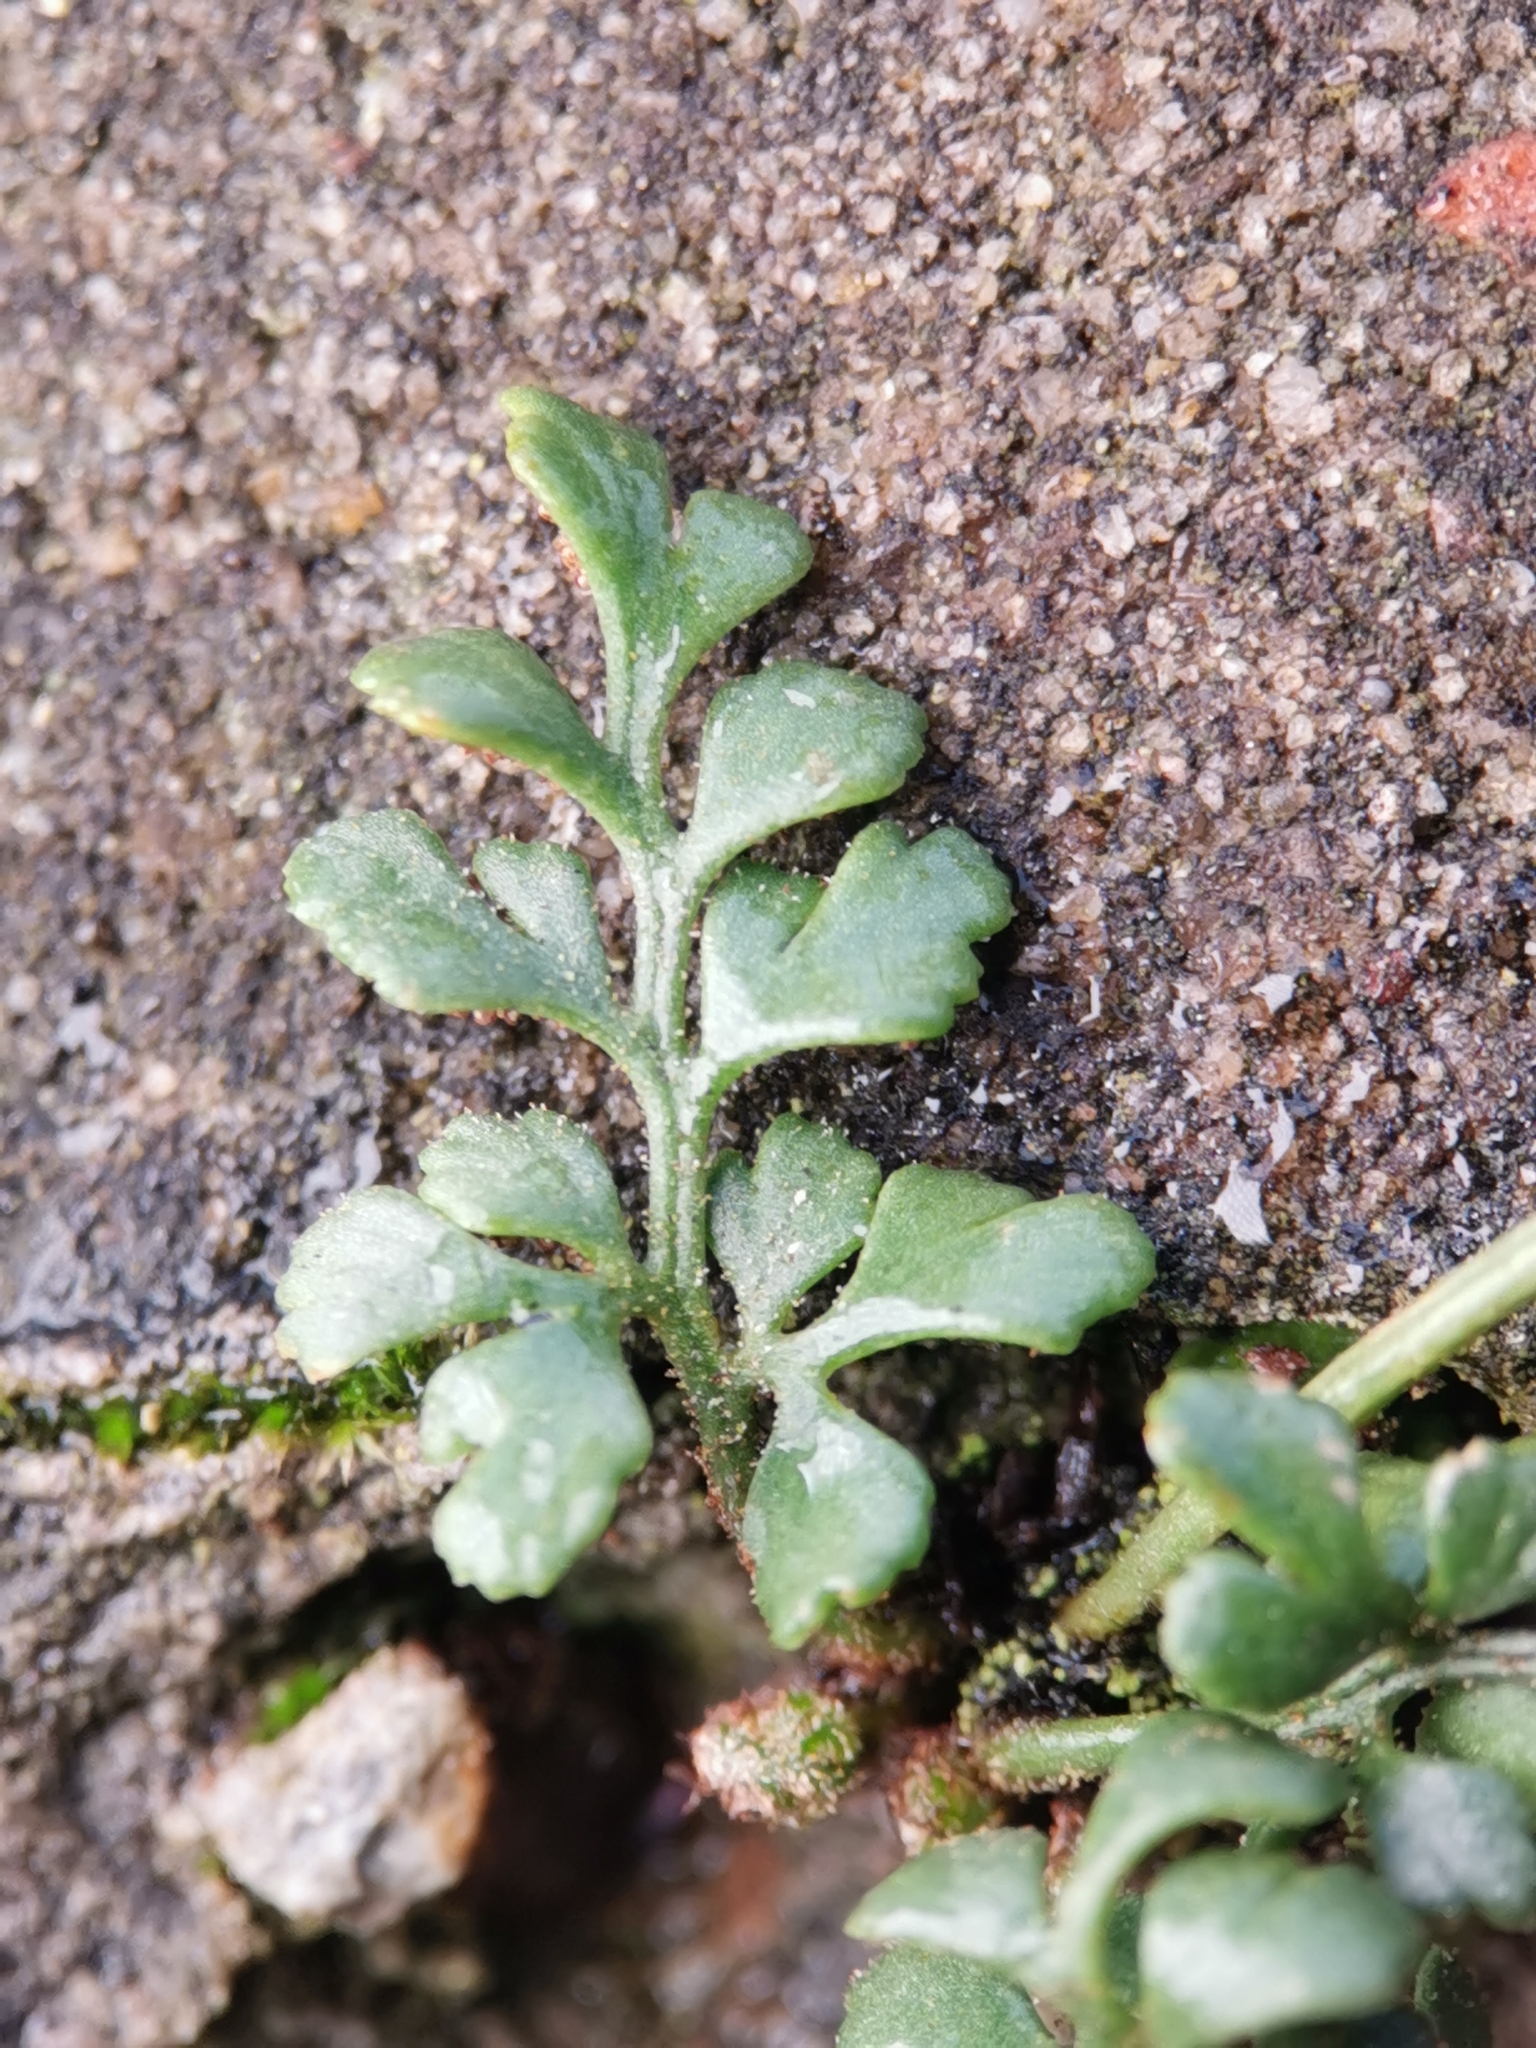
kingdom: Plantae
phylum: Tracheophyta
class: Polypodiopsida
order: Polypodiales
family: Aspleniaceae
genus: Asplenium
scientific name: Asplenium ruta-muraria
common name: Wall-rue
